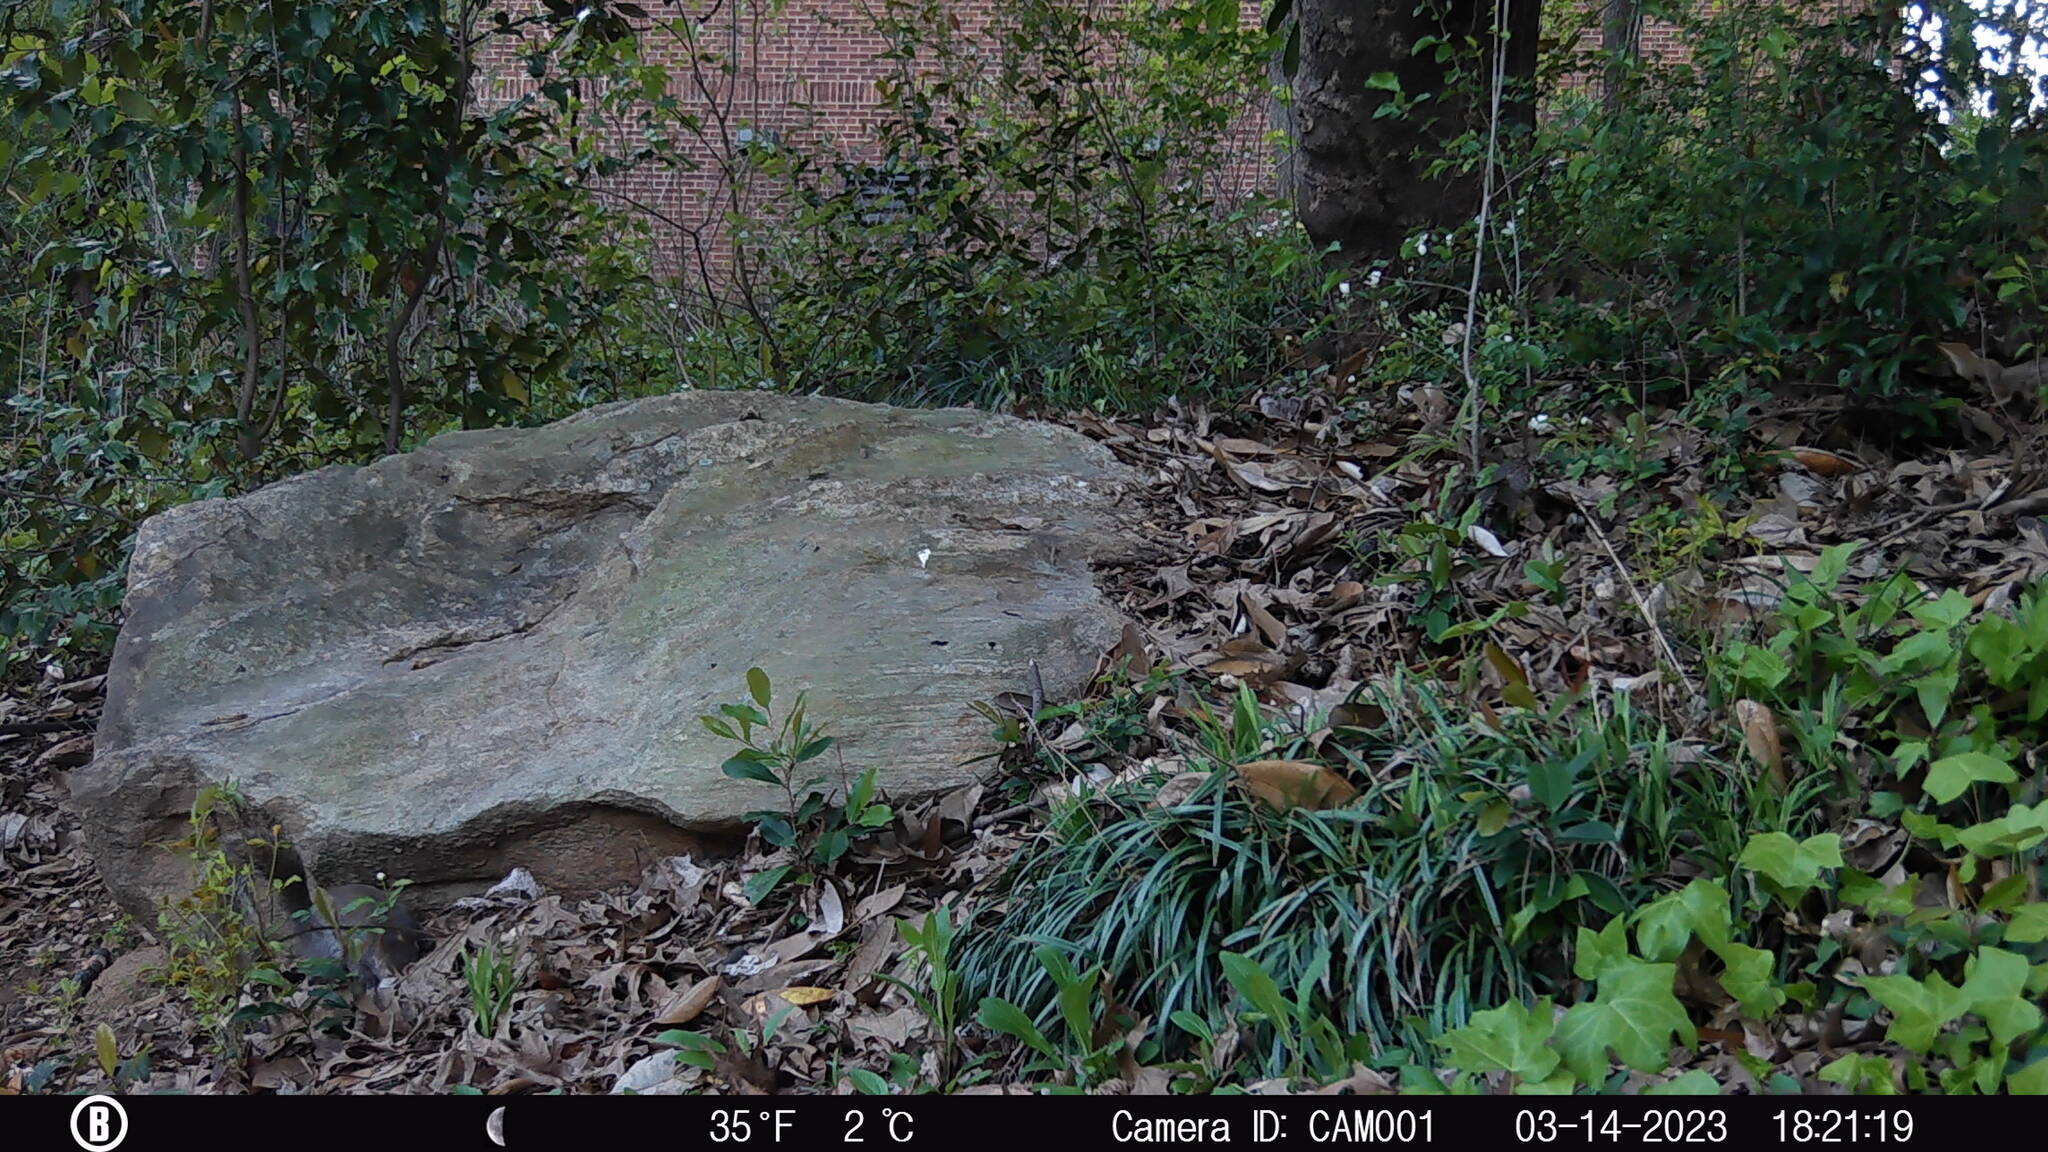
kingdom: Animalia
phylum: Chordata
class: Mammalia
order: Rodentia
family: Sciuridae
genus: Sciurus
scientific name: Sciurus carolinensis
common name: Eastern gray squirrel
